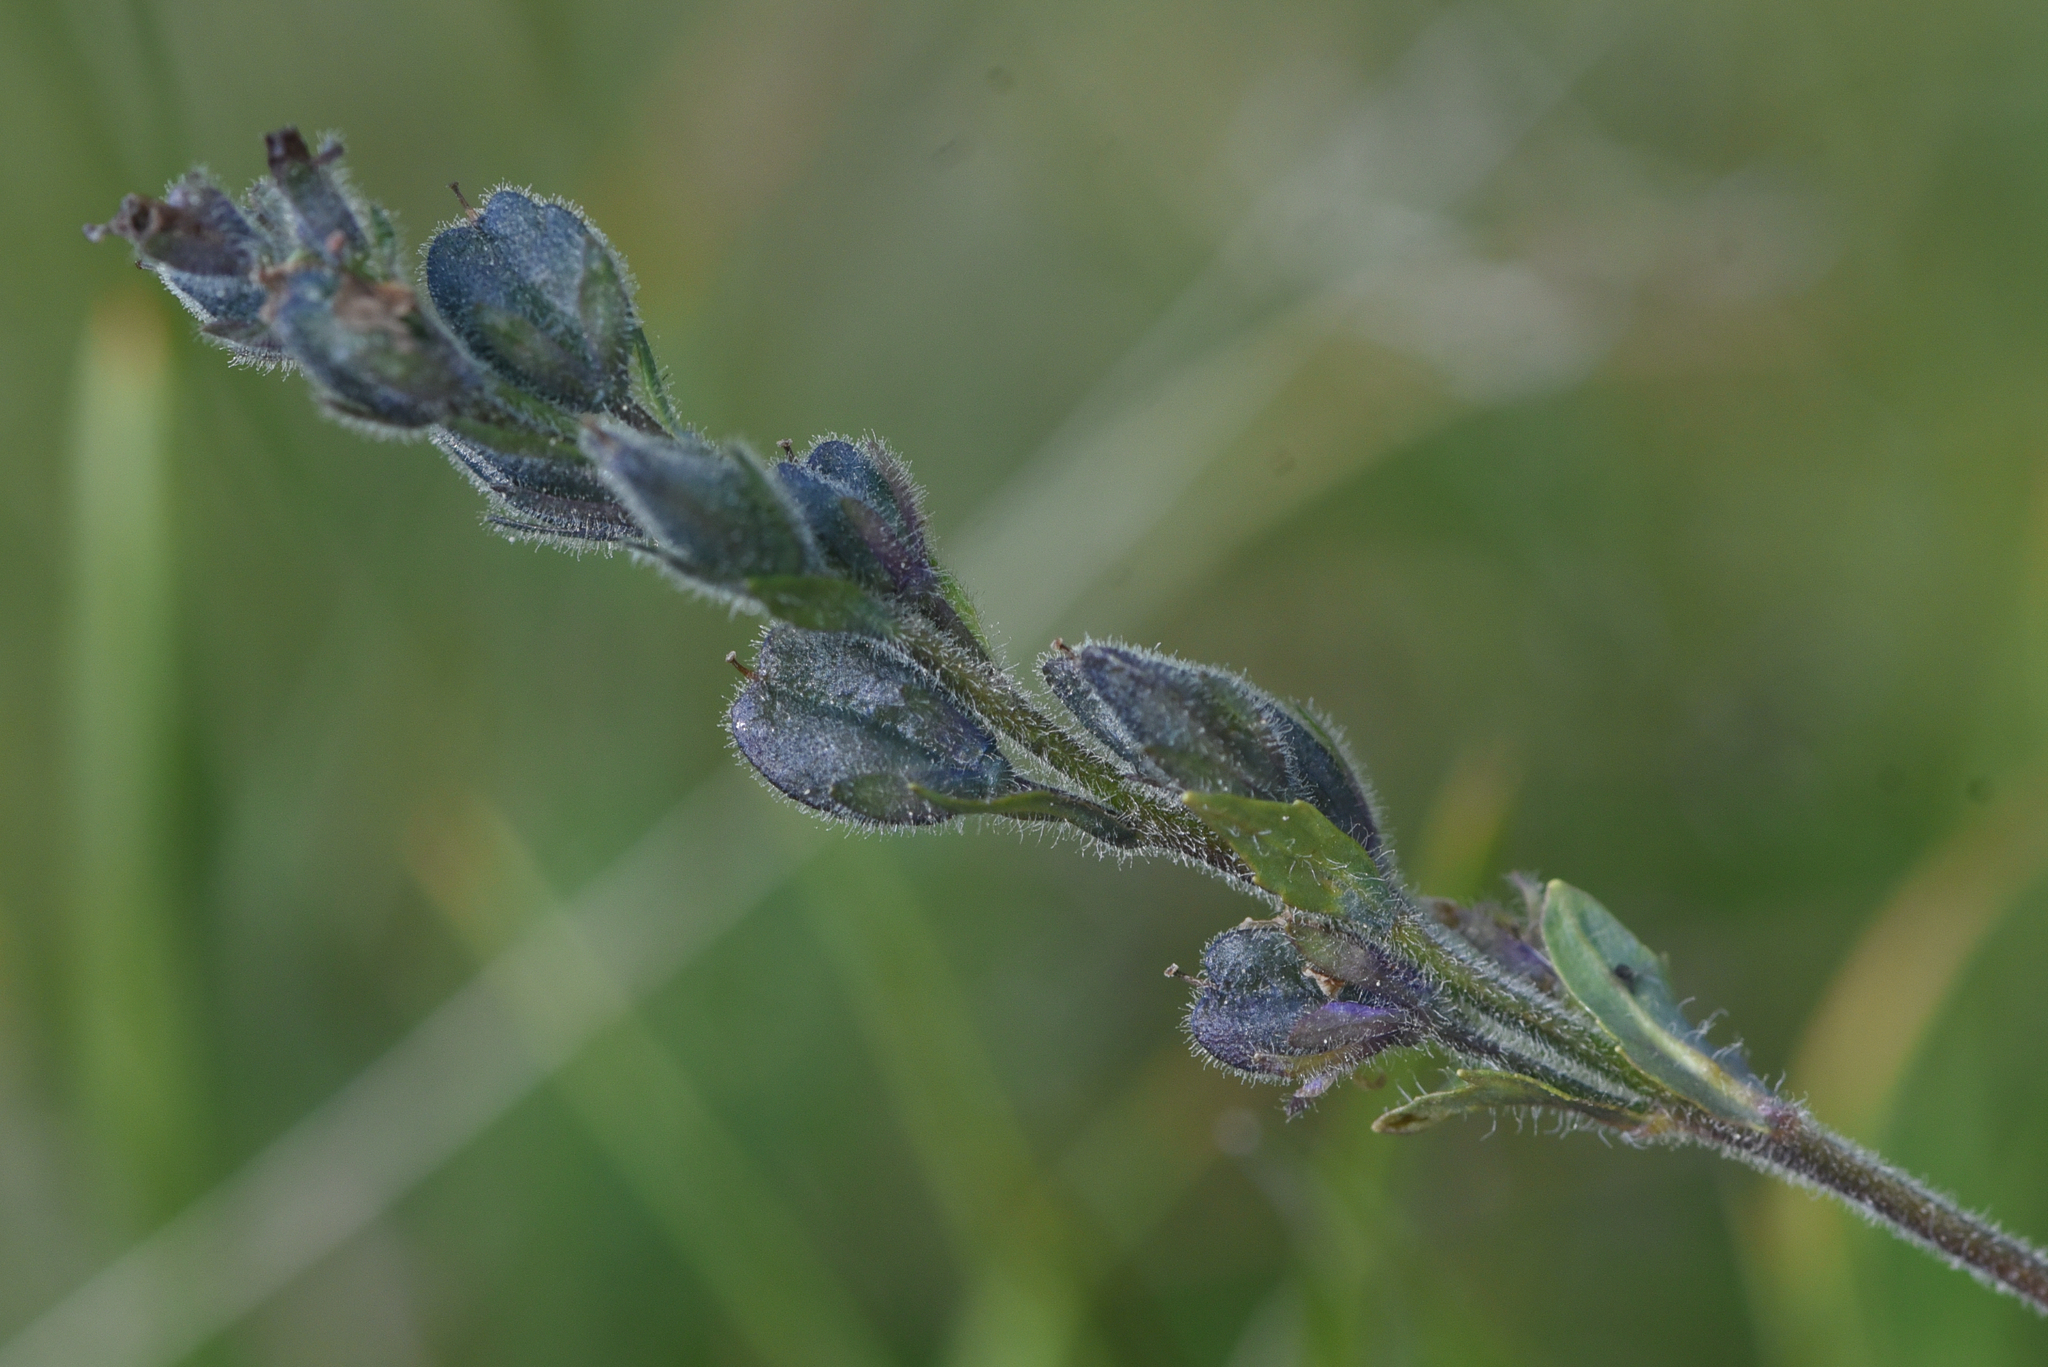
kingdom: Plantae
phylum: Tracheophyta
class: Magnoliopsida
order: Lamiales
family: Plantaginaceae
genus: Veronica
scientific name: Veronica wormskjoldii
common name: American alpine speedwell
